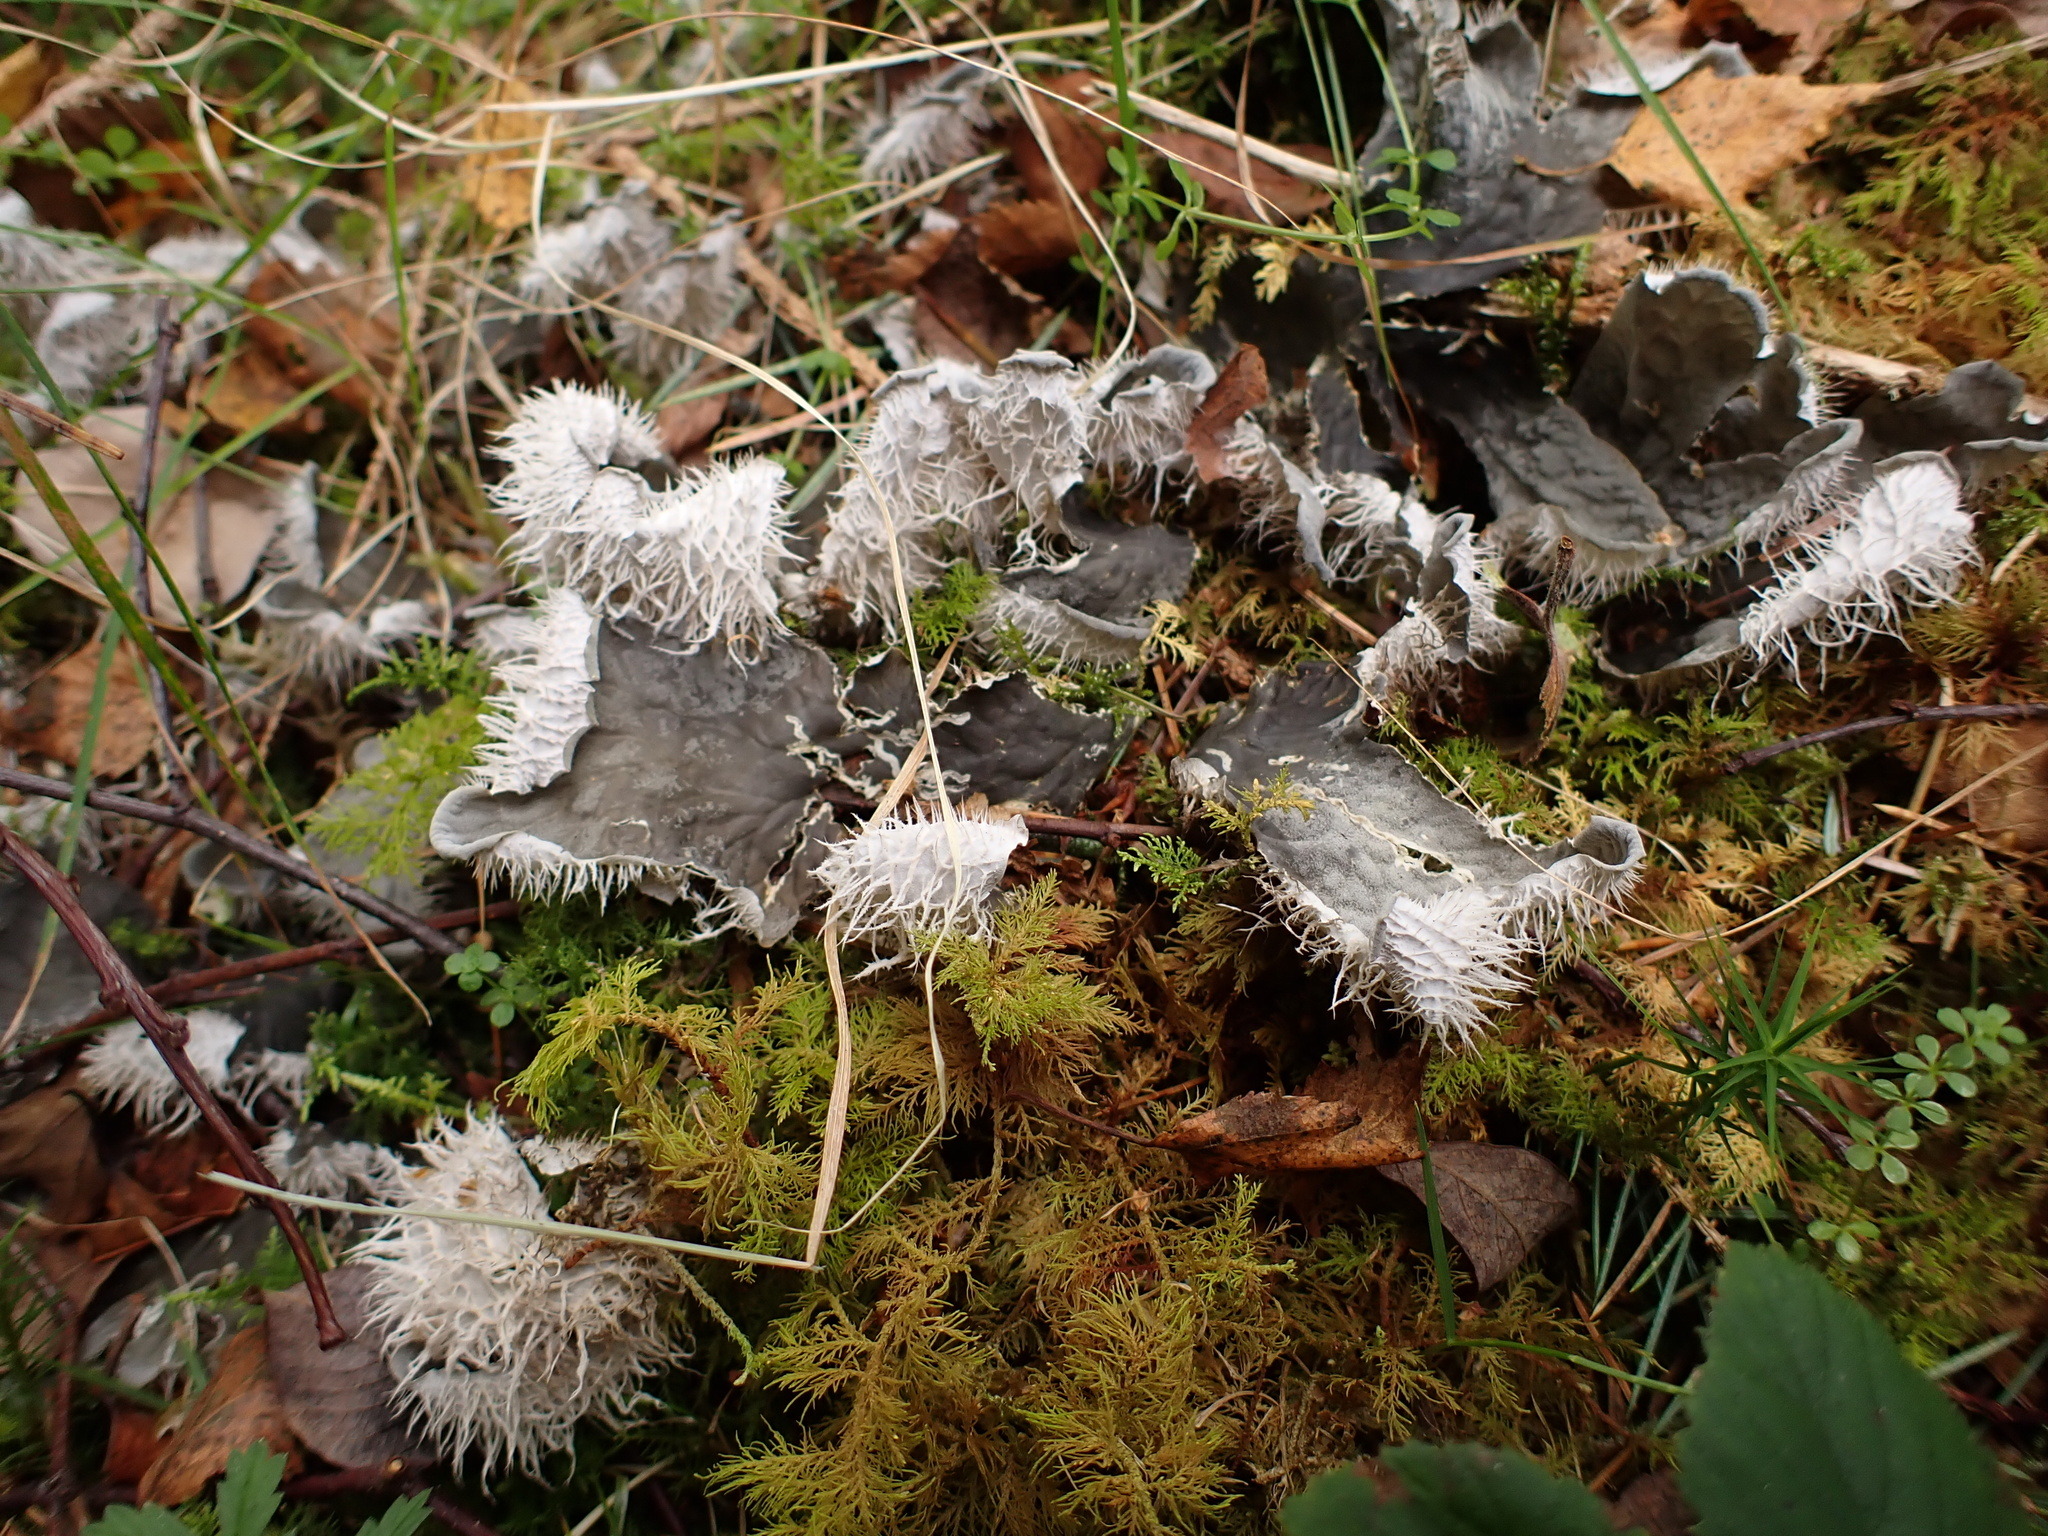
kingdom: Fungi
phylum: Ascomycota
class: Lecanoromycetes
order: Peltigerales
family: Peltigeraceae
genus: Peltigera
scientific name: Peltigera membranacea
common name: Membranous pelt lichen
